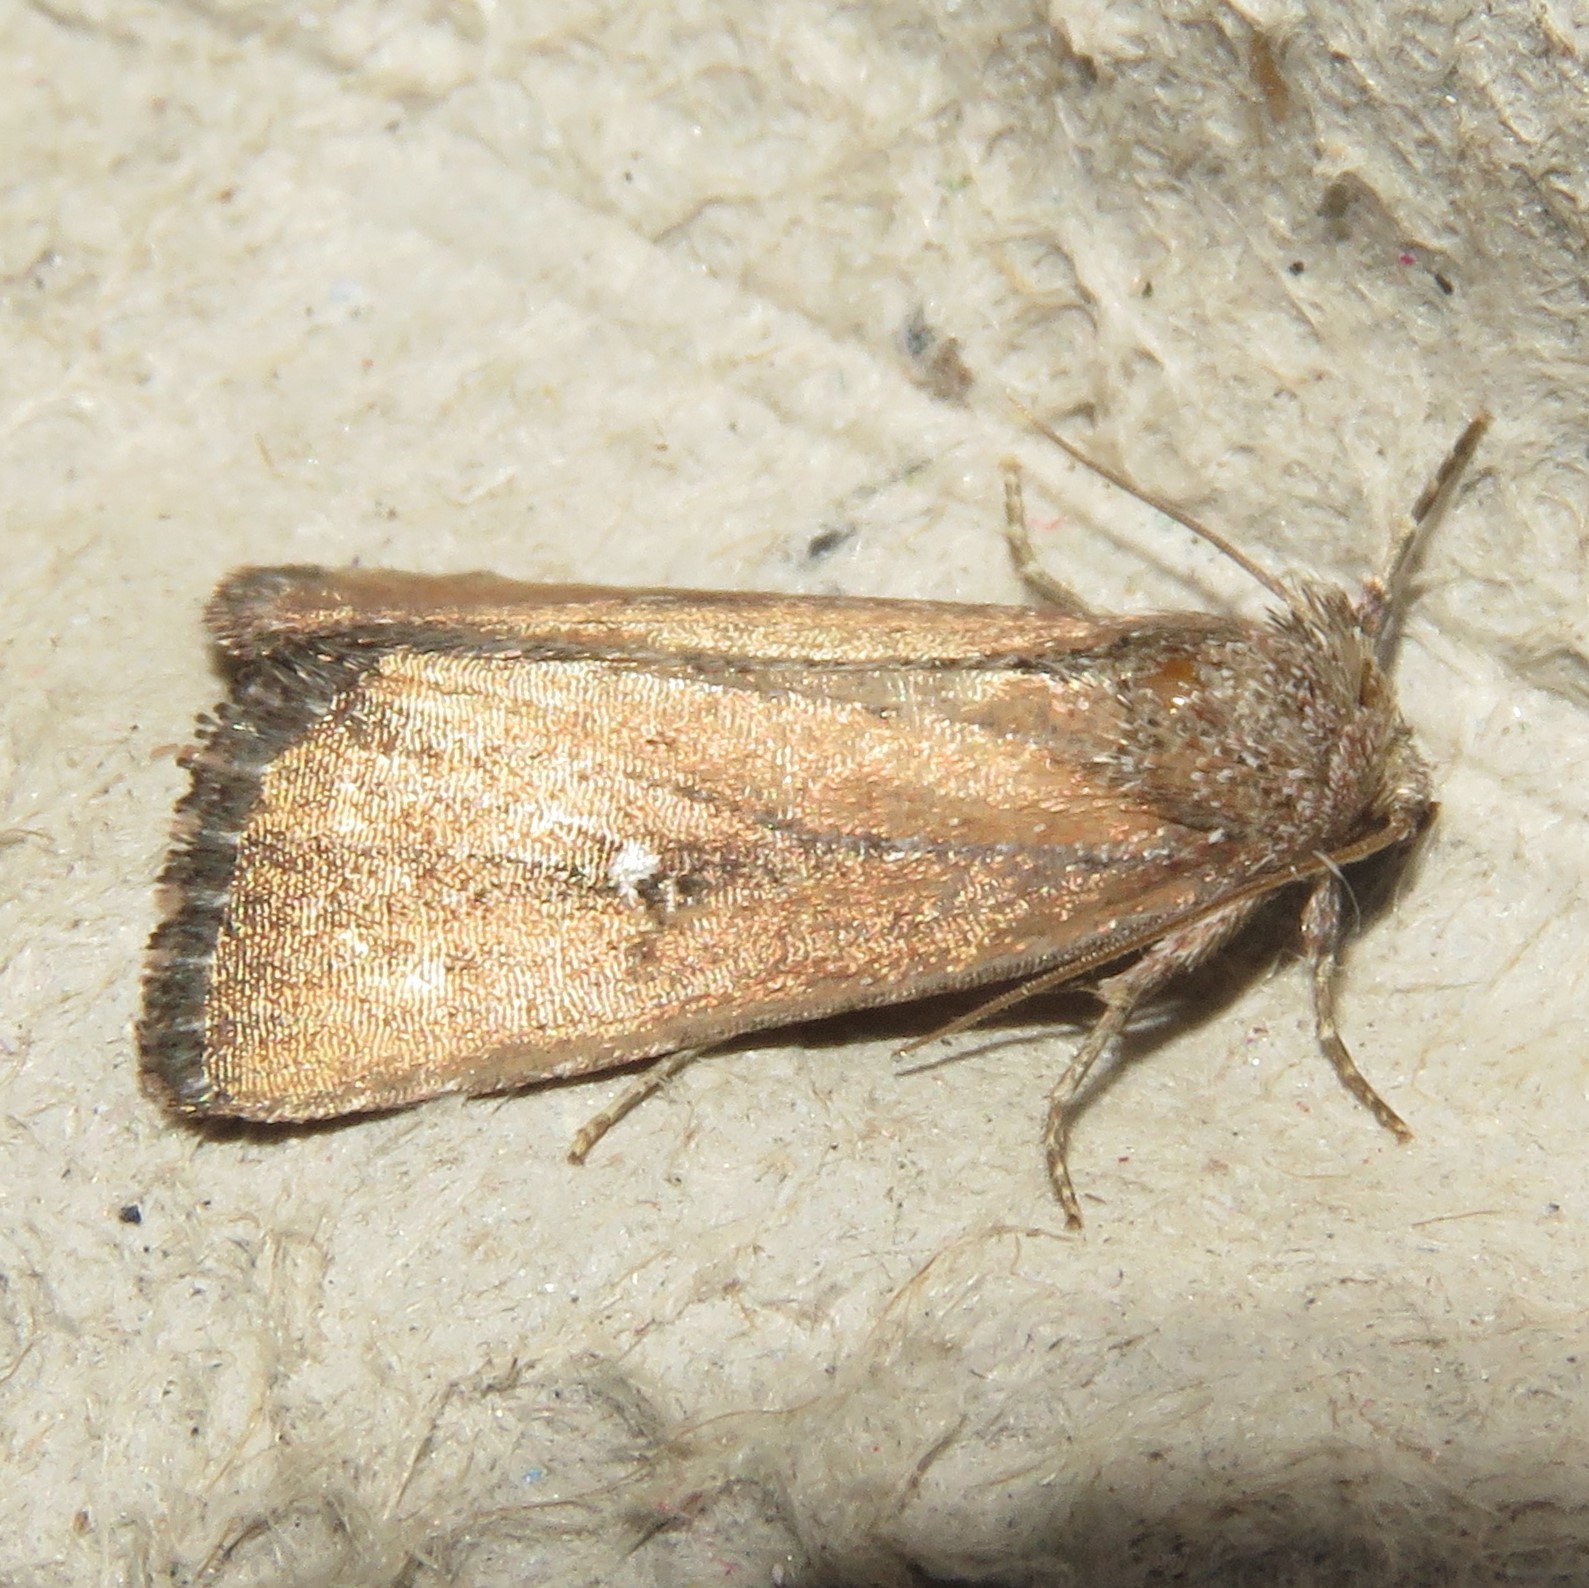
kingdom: Animalia
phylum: Arthropoda
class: Insecta
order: Lepidoptera
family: Noctuidae
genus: Condica
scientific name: Condica videns
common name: White-dotted groundling
